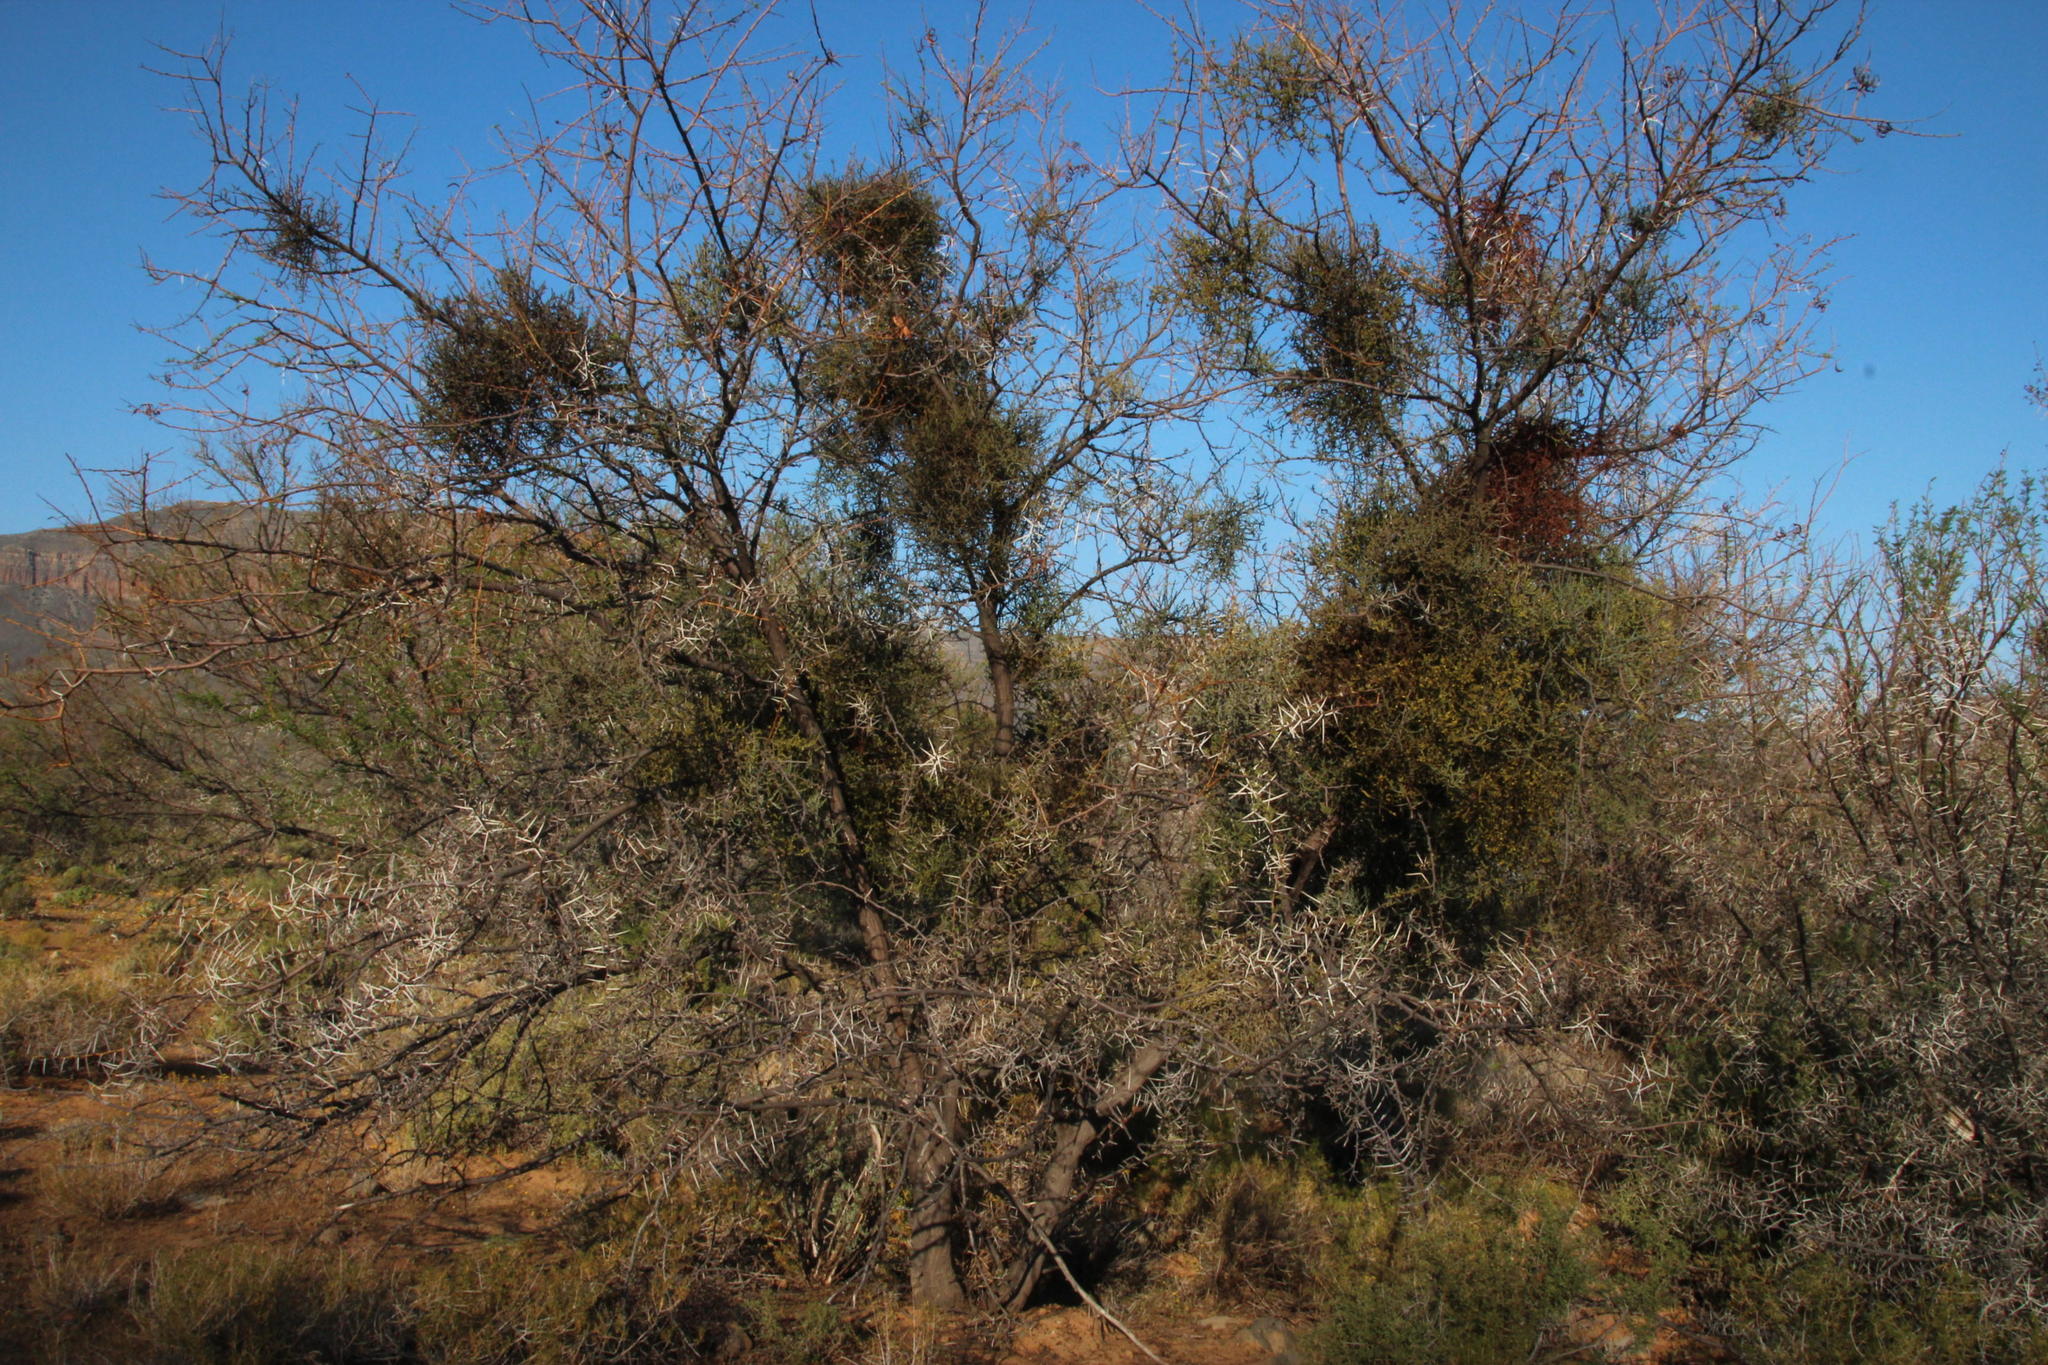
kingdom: Plantae
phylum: Tracheophyta
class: Magnoliopsida
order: Fabales
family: Fabaceae
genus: Vachellia
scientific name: Vachellia karroo
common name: Sweet thorn
